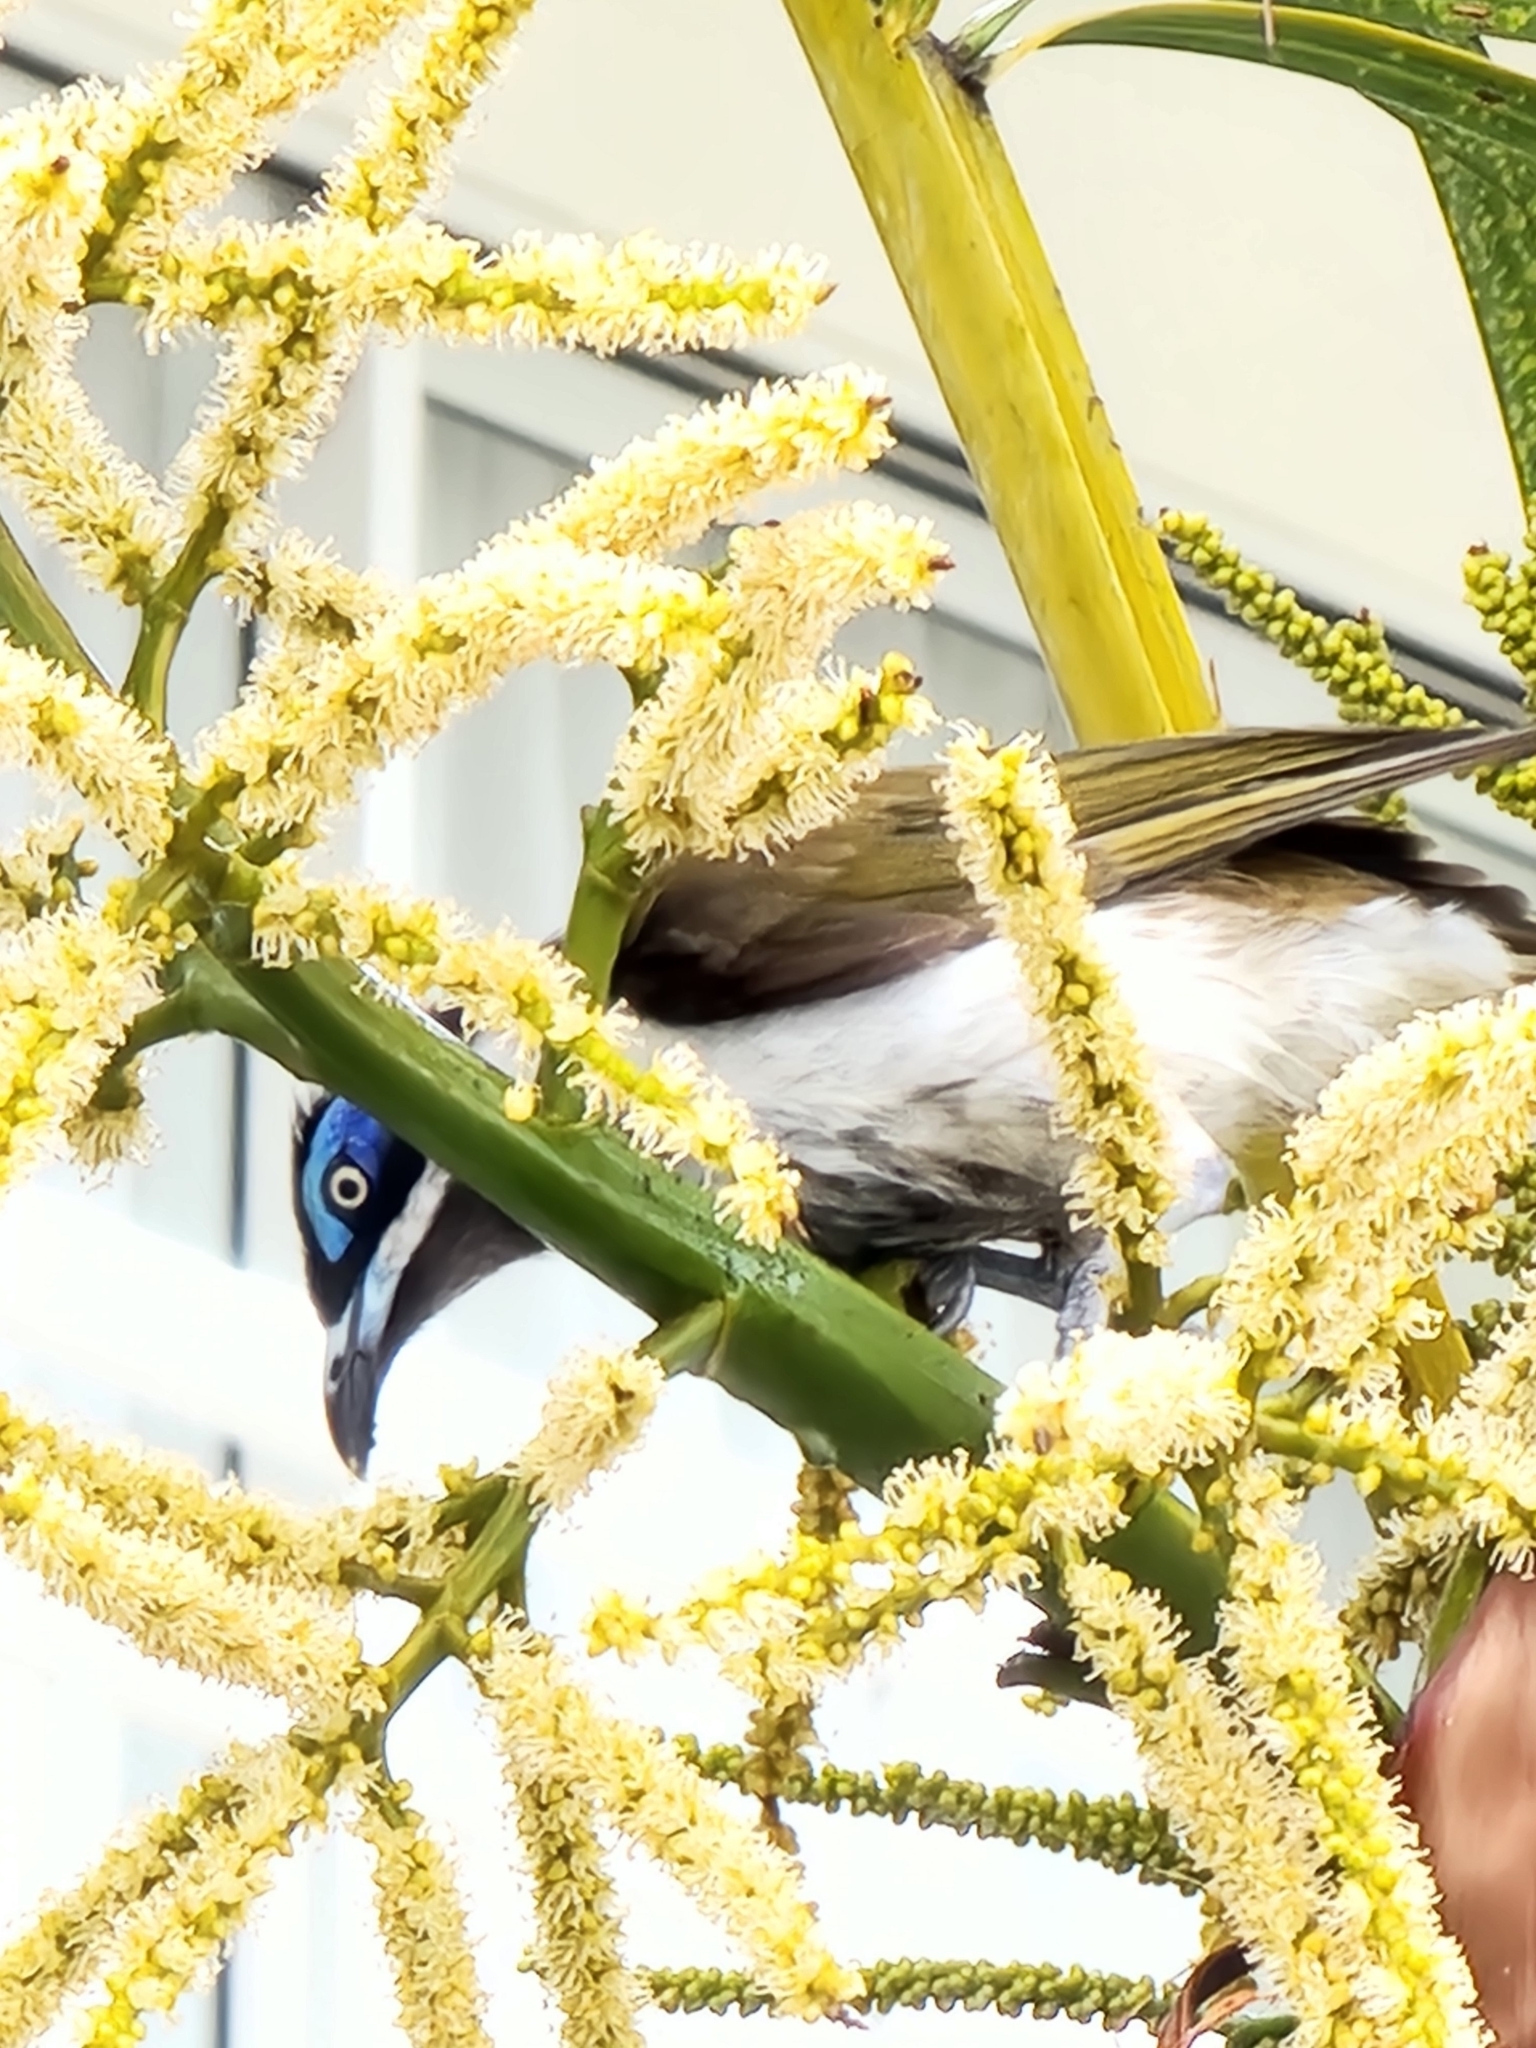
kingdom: Animalia
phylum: Chordata
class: Aves
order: Passeriformes
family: Meliphagidae
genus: Entomyzon
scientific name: Entomyzon cyanotis
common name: Blue-faced honeyeater
